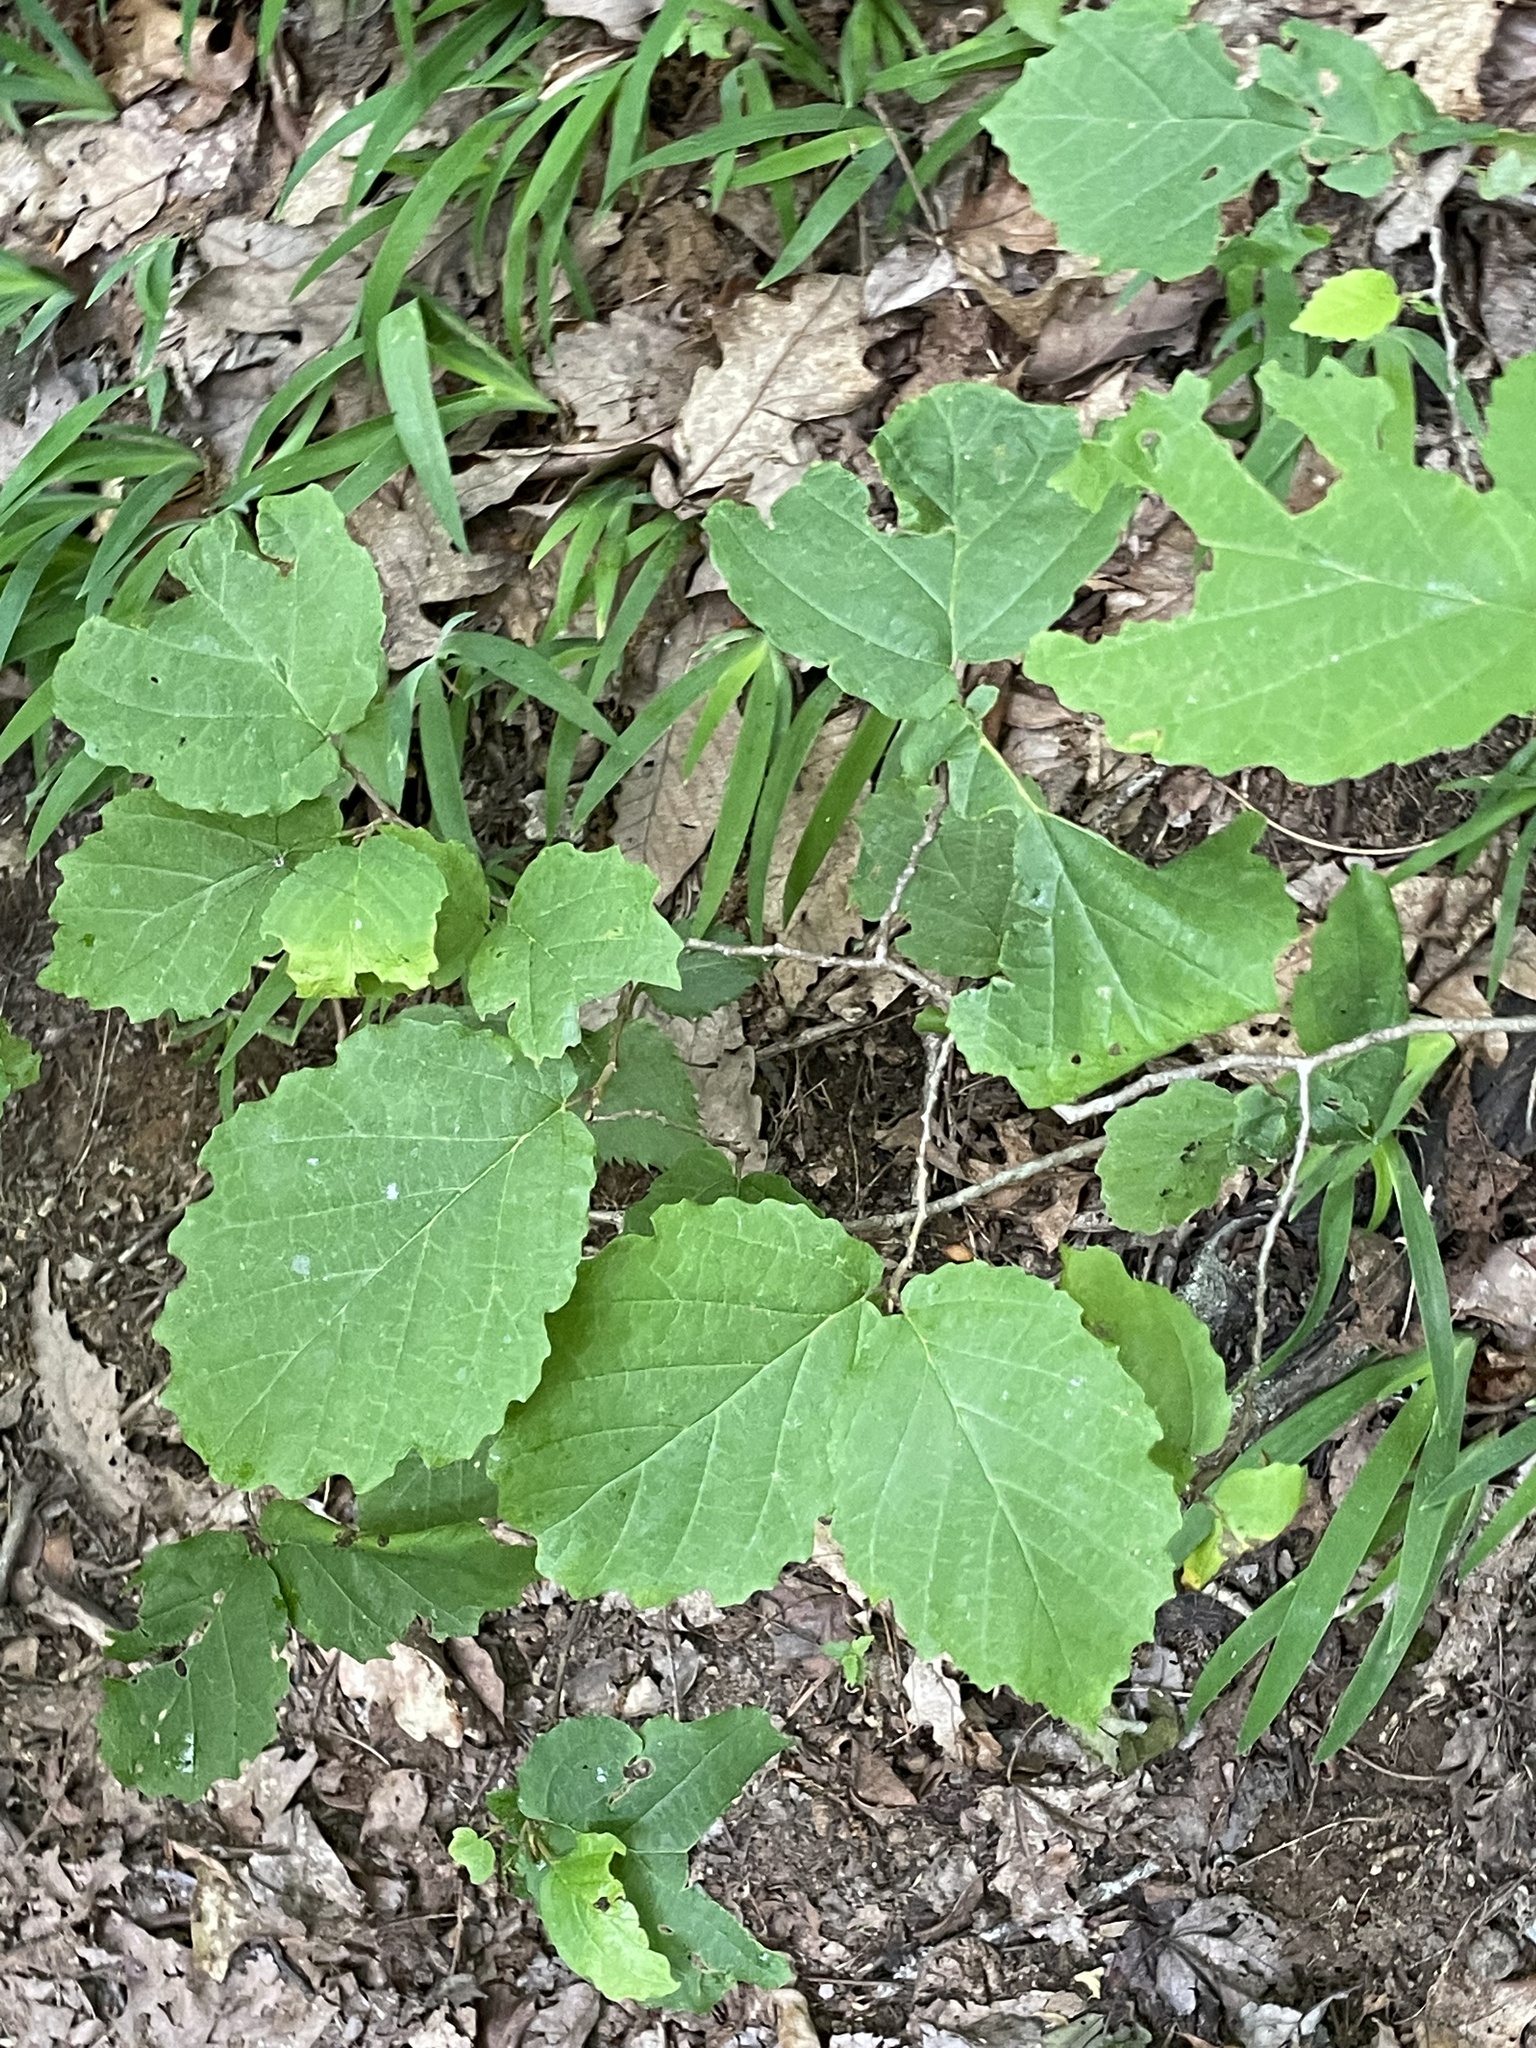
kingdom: Plantae
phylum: Tracheophyta
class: Magnoliopsida
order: Saxifragales
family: Hamamelidaceae
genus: Hamamelis
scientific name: Hamamelis virginiana
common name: Witch-hazel
